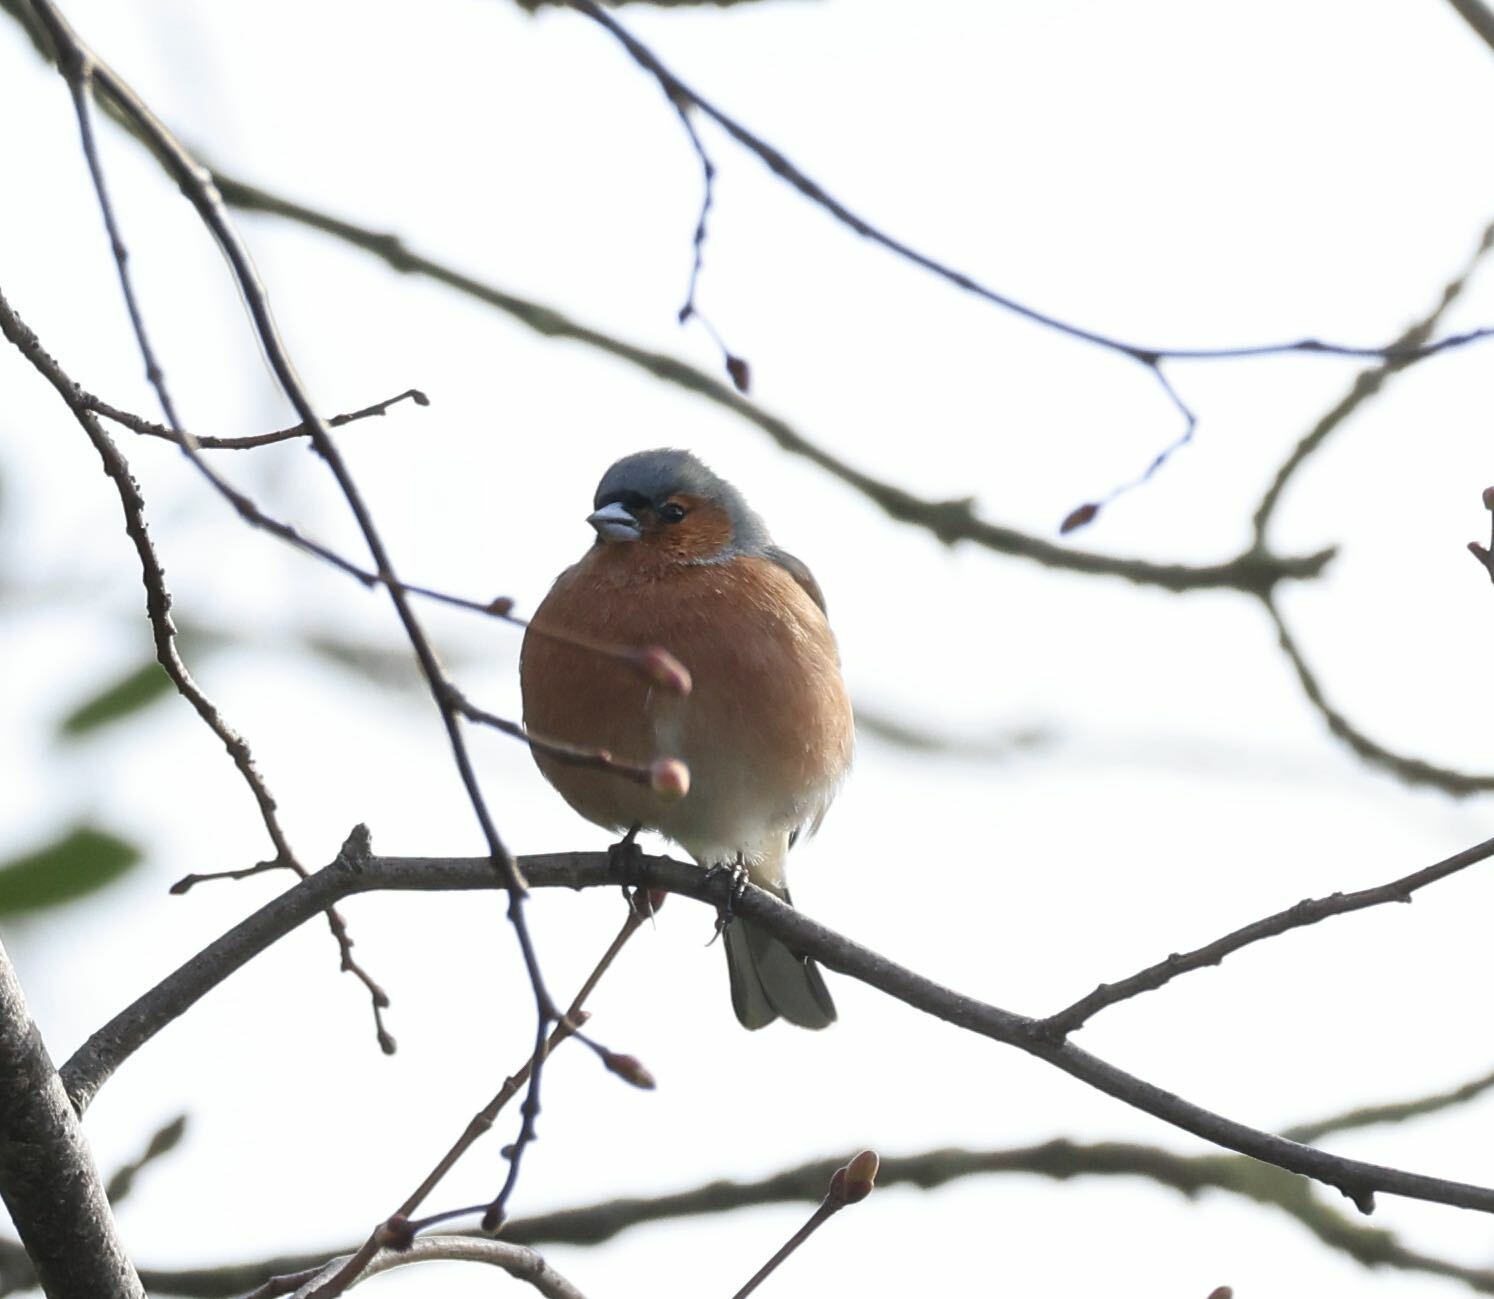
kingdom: Animalia
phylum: Chordata
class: Aves
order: Passeriformes
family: Fringillidae
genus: Fringilla
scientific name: Fringilla coelebs
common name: Common chaffinch
